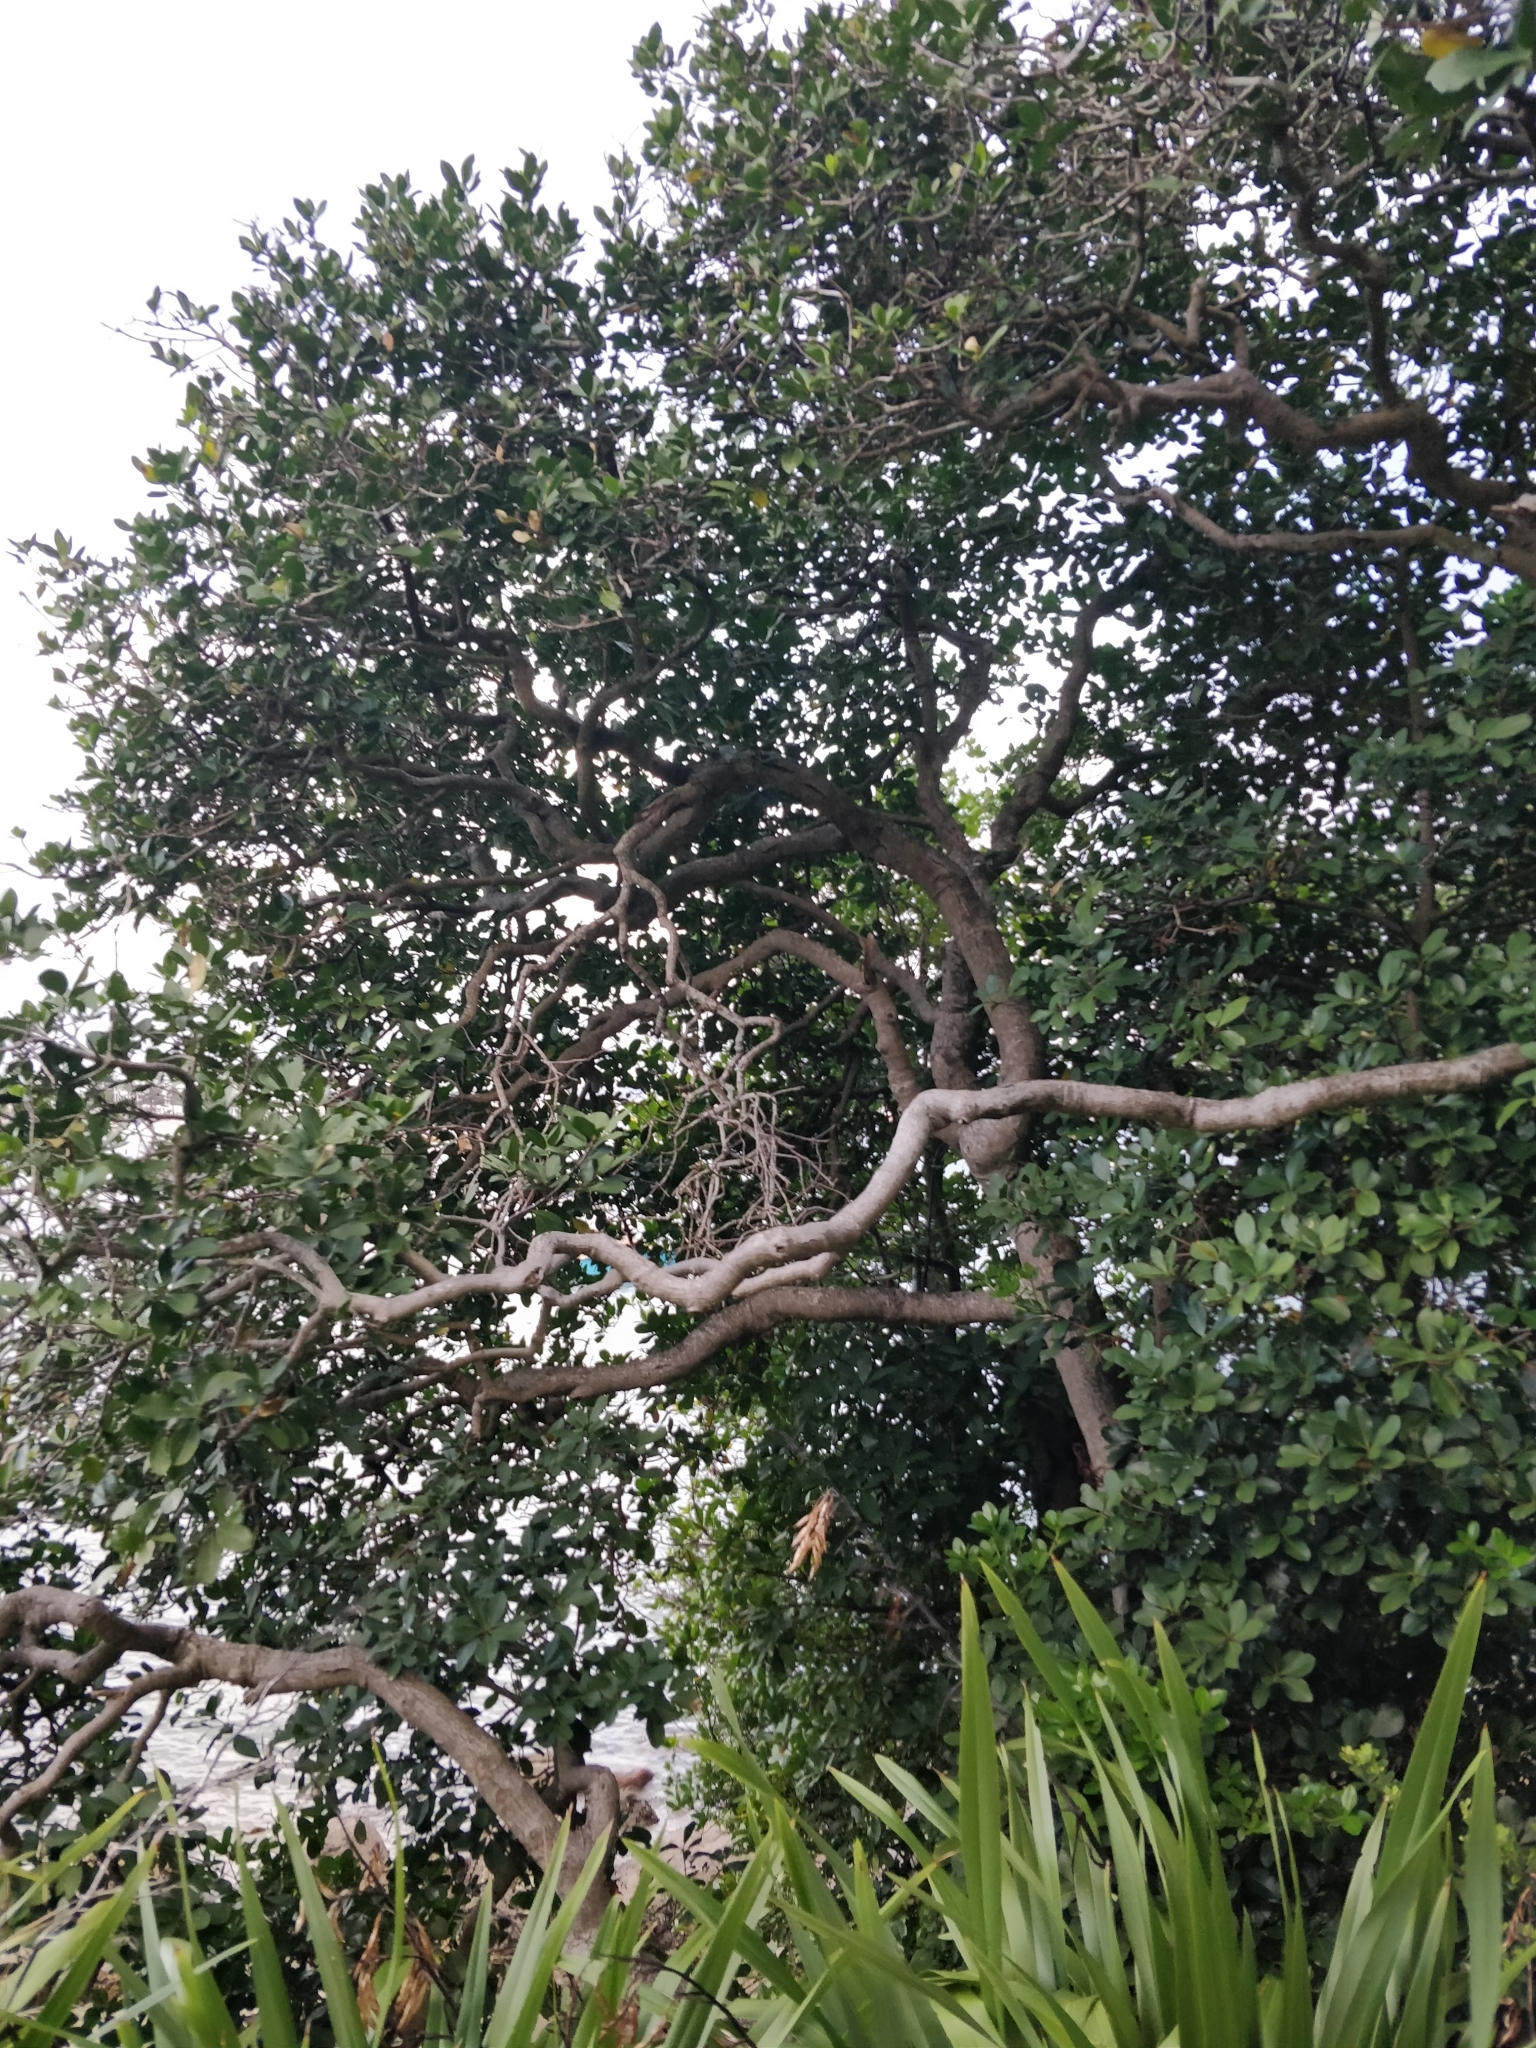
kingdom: Plantae
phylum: Tracheophyta
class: Magnoliopsida
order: Cucurbitales
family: Corynocarpaceae
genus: Corynocarpus
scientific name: Corynocarpus laevigatus
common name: New zealand laurel
